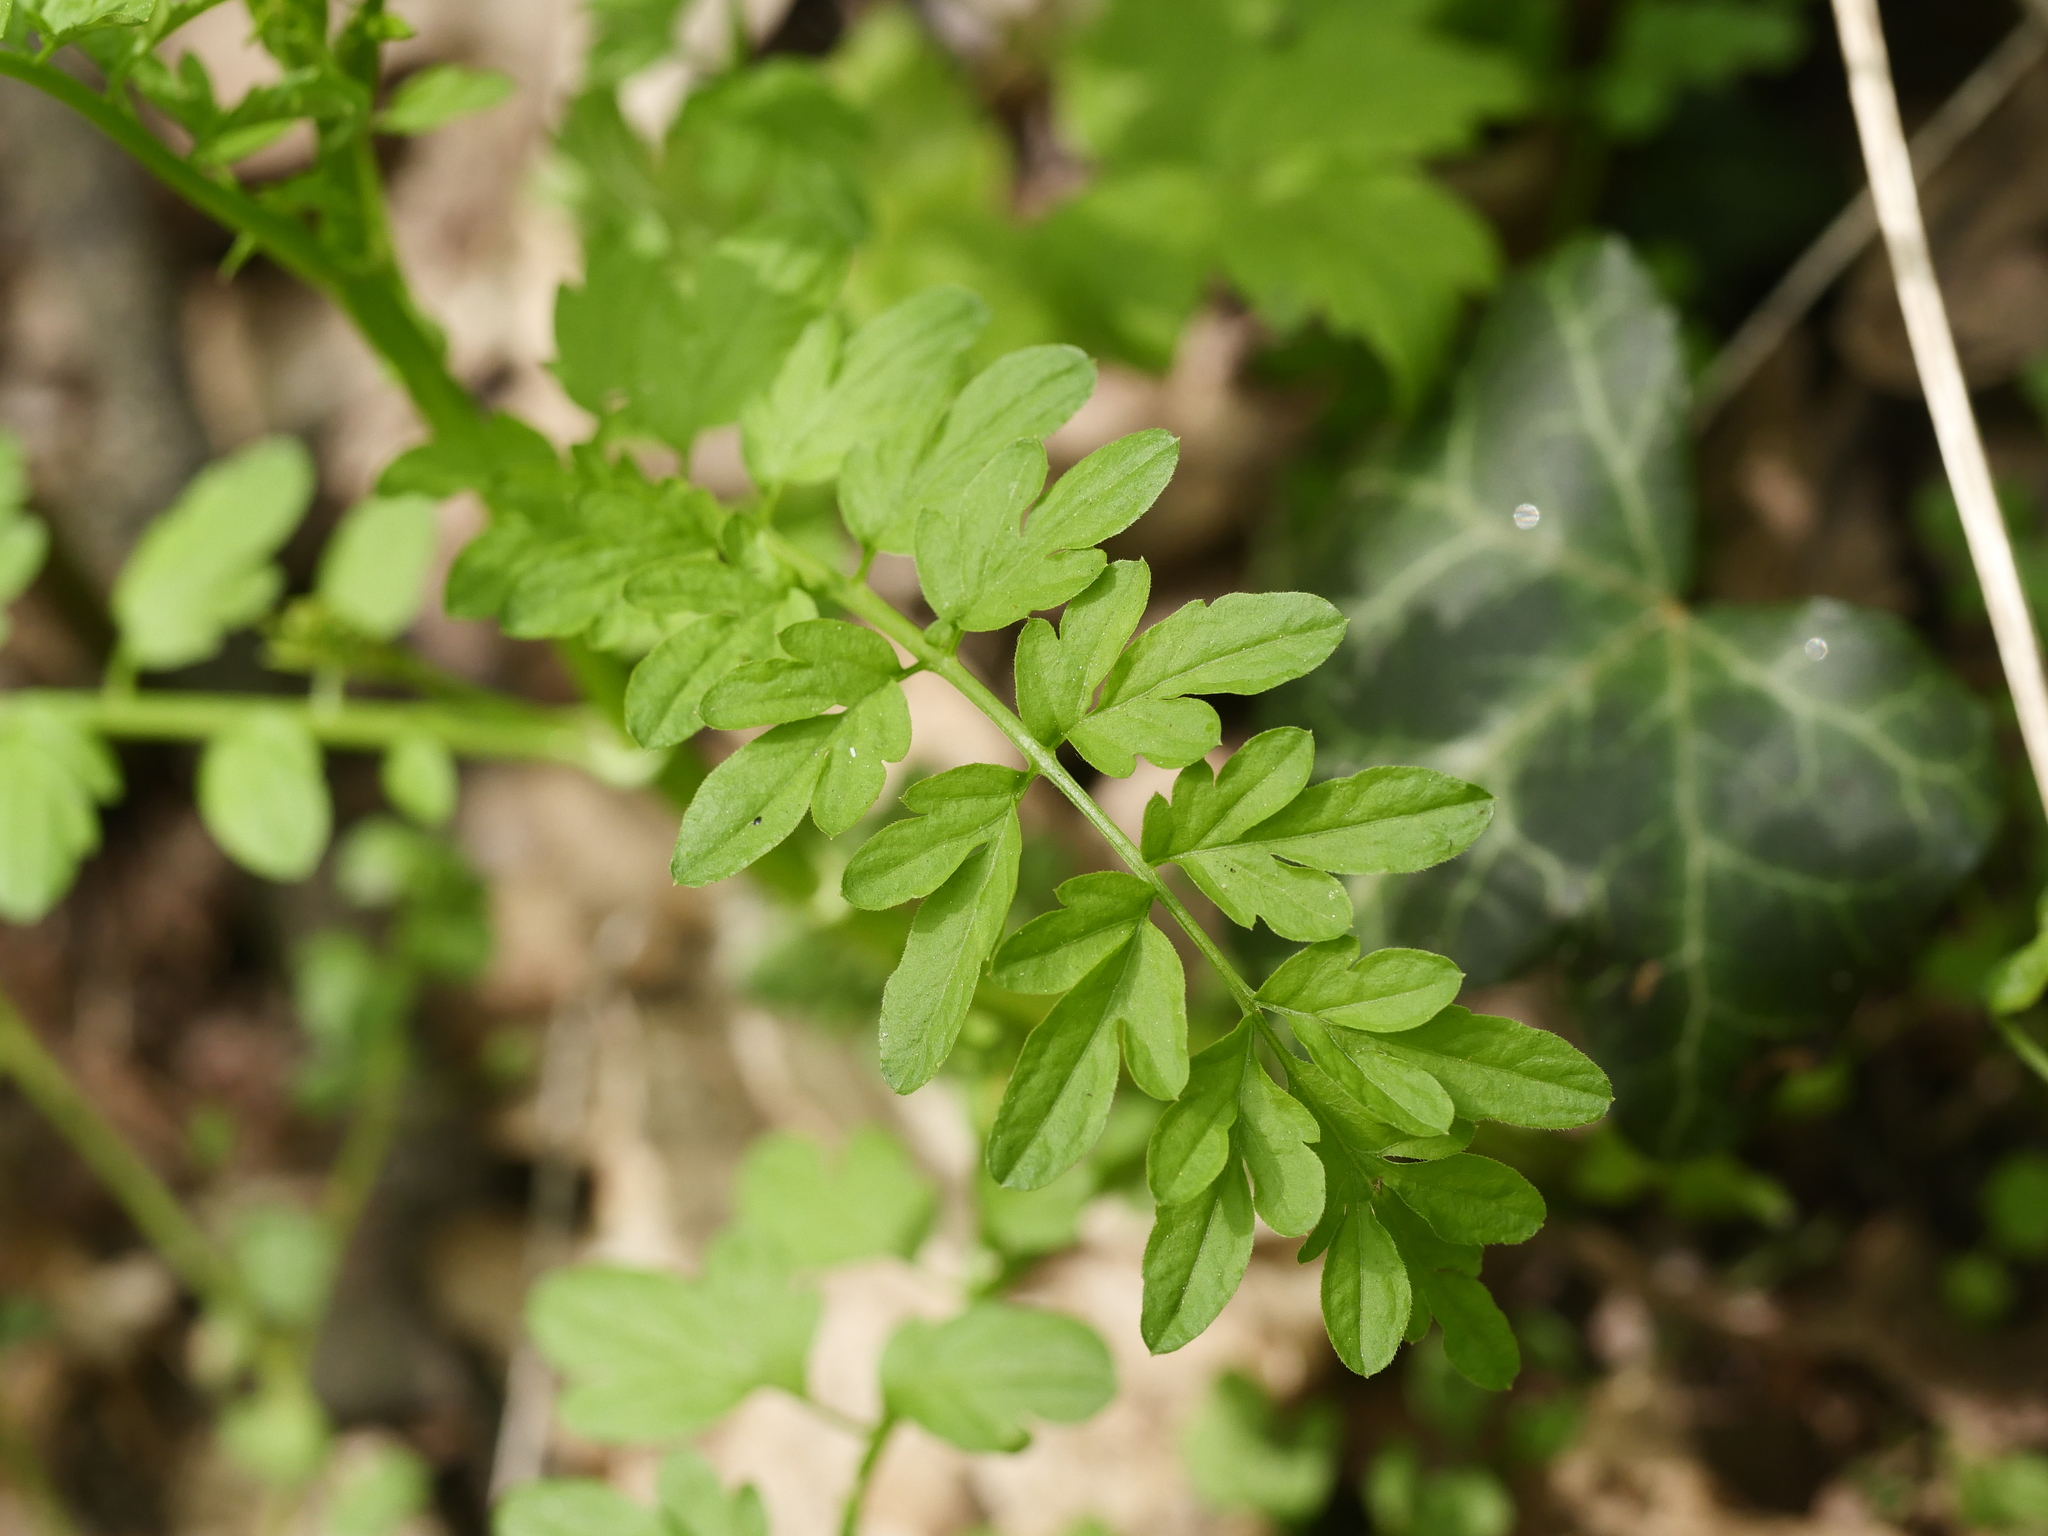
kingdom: Plantae
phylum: Tracheophyta
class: Magnoliopsida
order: Brassicales
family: Brassicaceae
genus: Cardamine
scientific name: Cardamine impatiens
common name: Narrow-leaved bitter-cress
